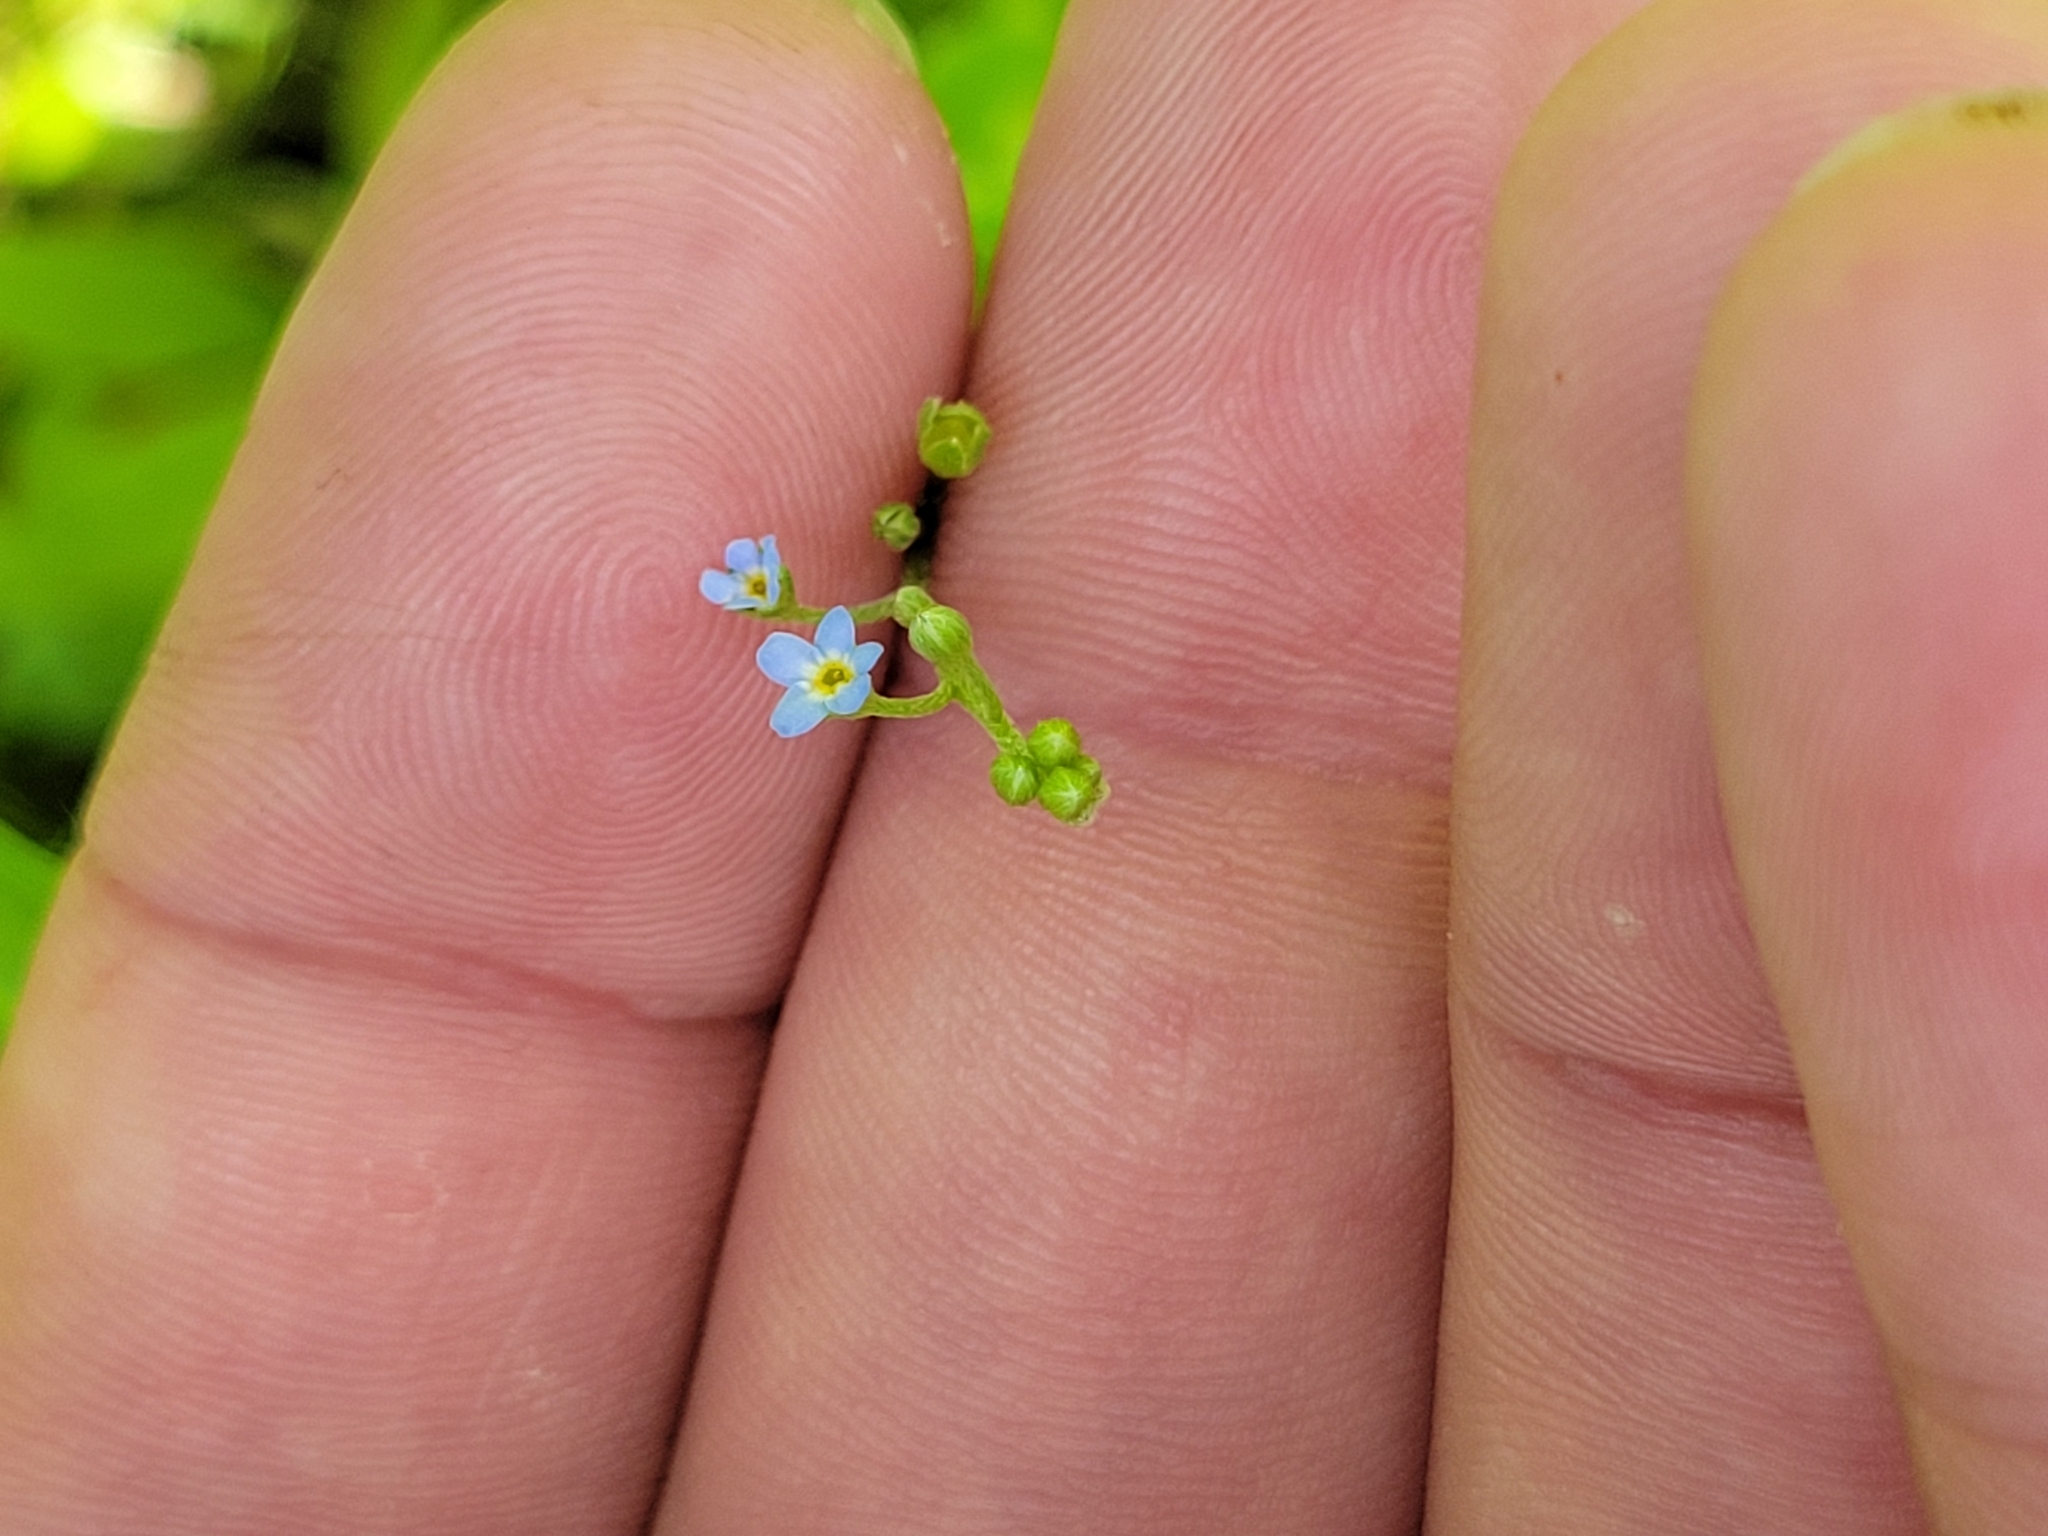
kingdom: Plantae
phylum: Tracheophyta
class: Magnoliopsida
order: Boraginales
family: Boraginaceae
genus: Myosotis
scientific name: Myosotis laxa
